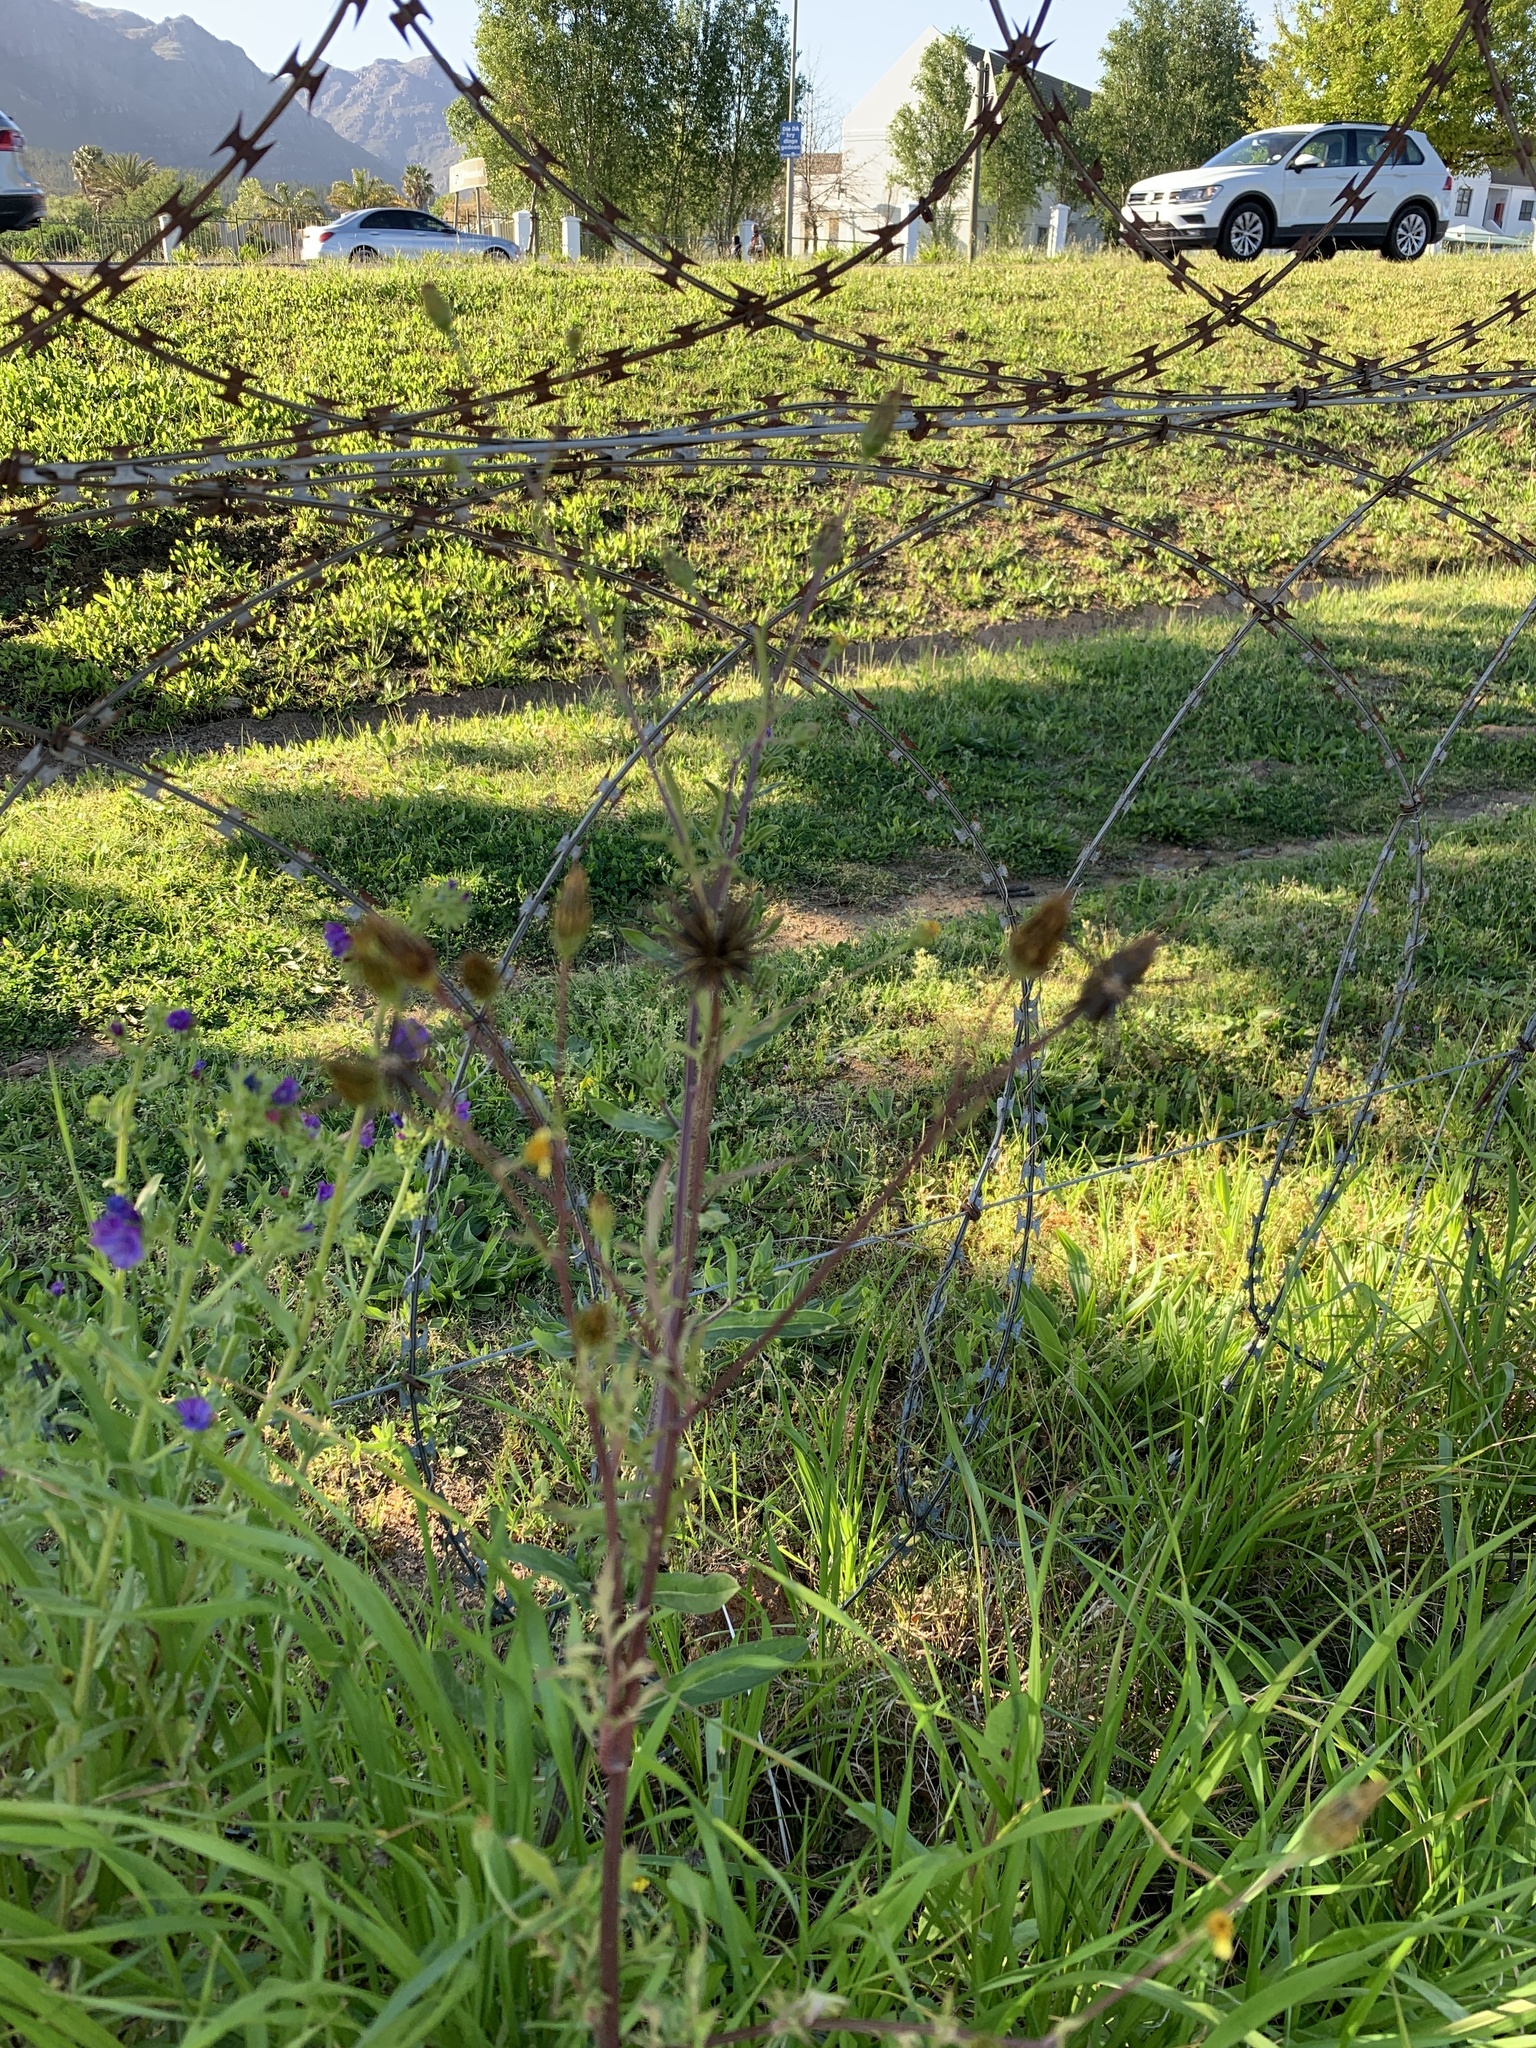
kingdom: Plantae
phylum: Tracheophyta
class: Magnoliopsida
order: Asterales
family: Asteraceae
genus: Bidens
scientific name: Bidens bipinnata
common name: Spanish-needles
